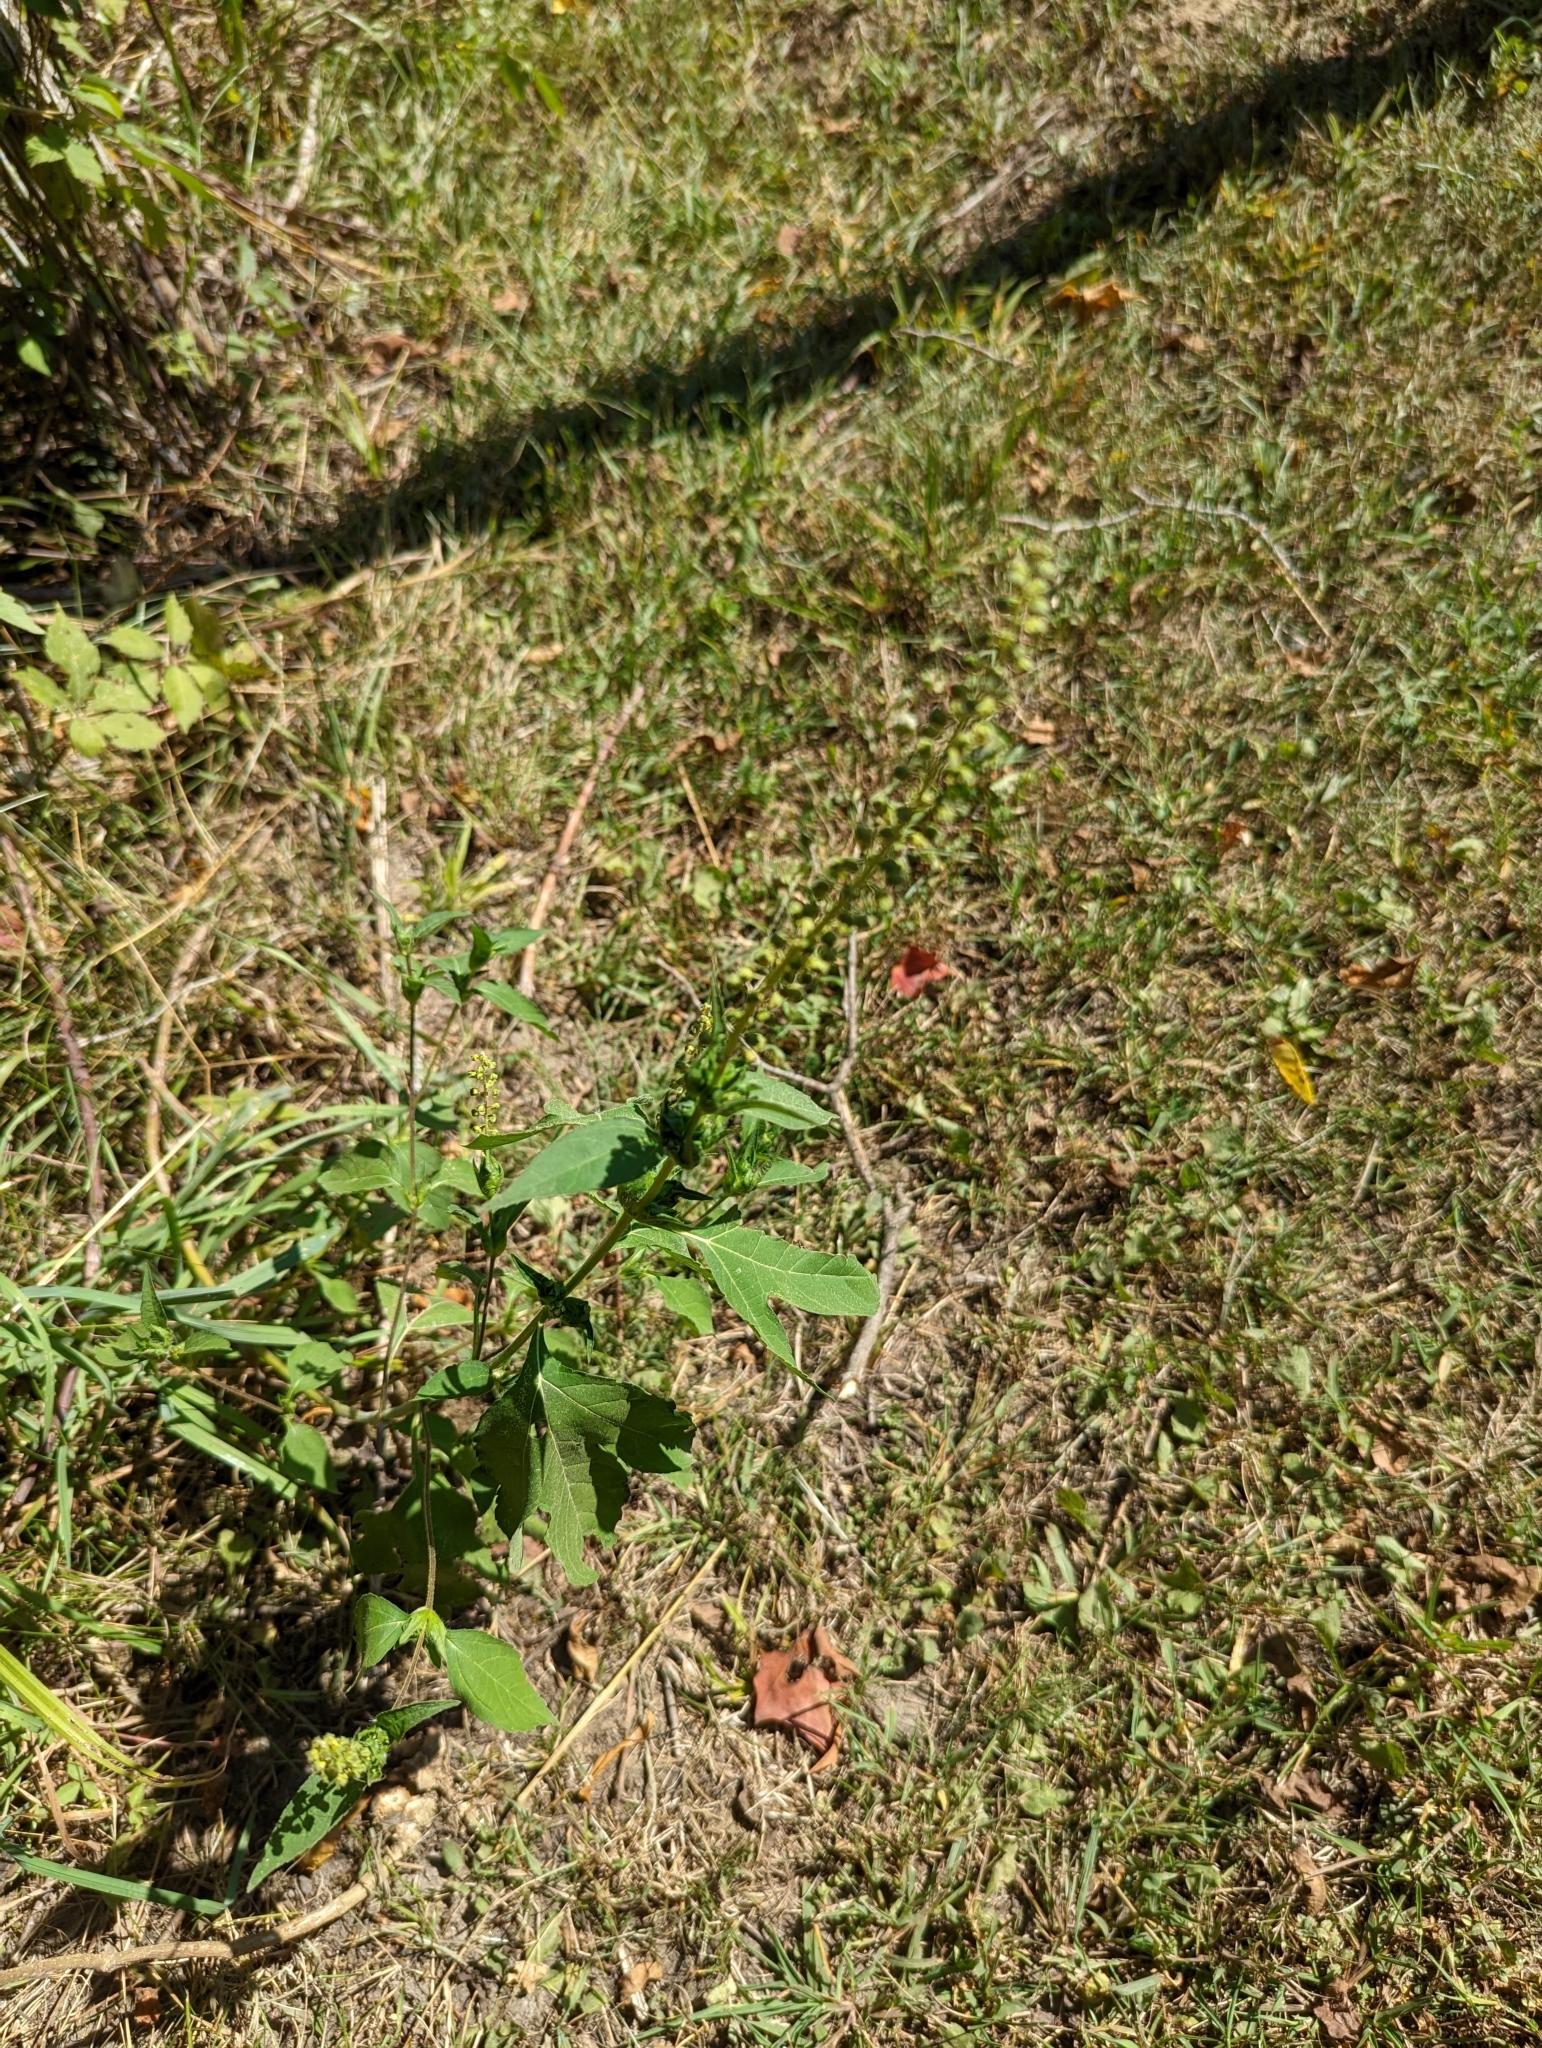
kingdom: Plantae
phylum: Tracheophyta
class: Magnoliopsida
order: Asterales
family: Asteraceae
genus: Ambrosia
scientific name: Ambrosia trifida
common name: Giant ragweed
